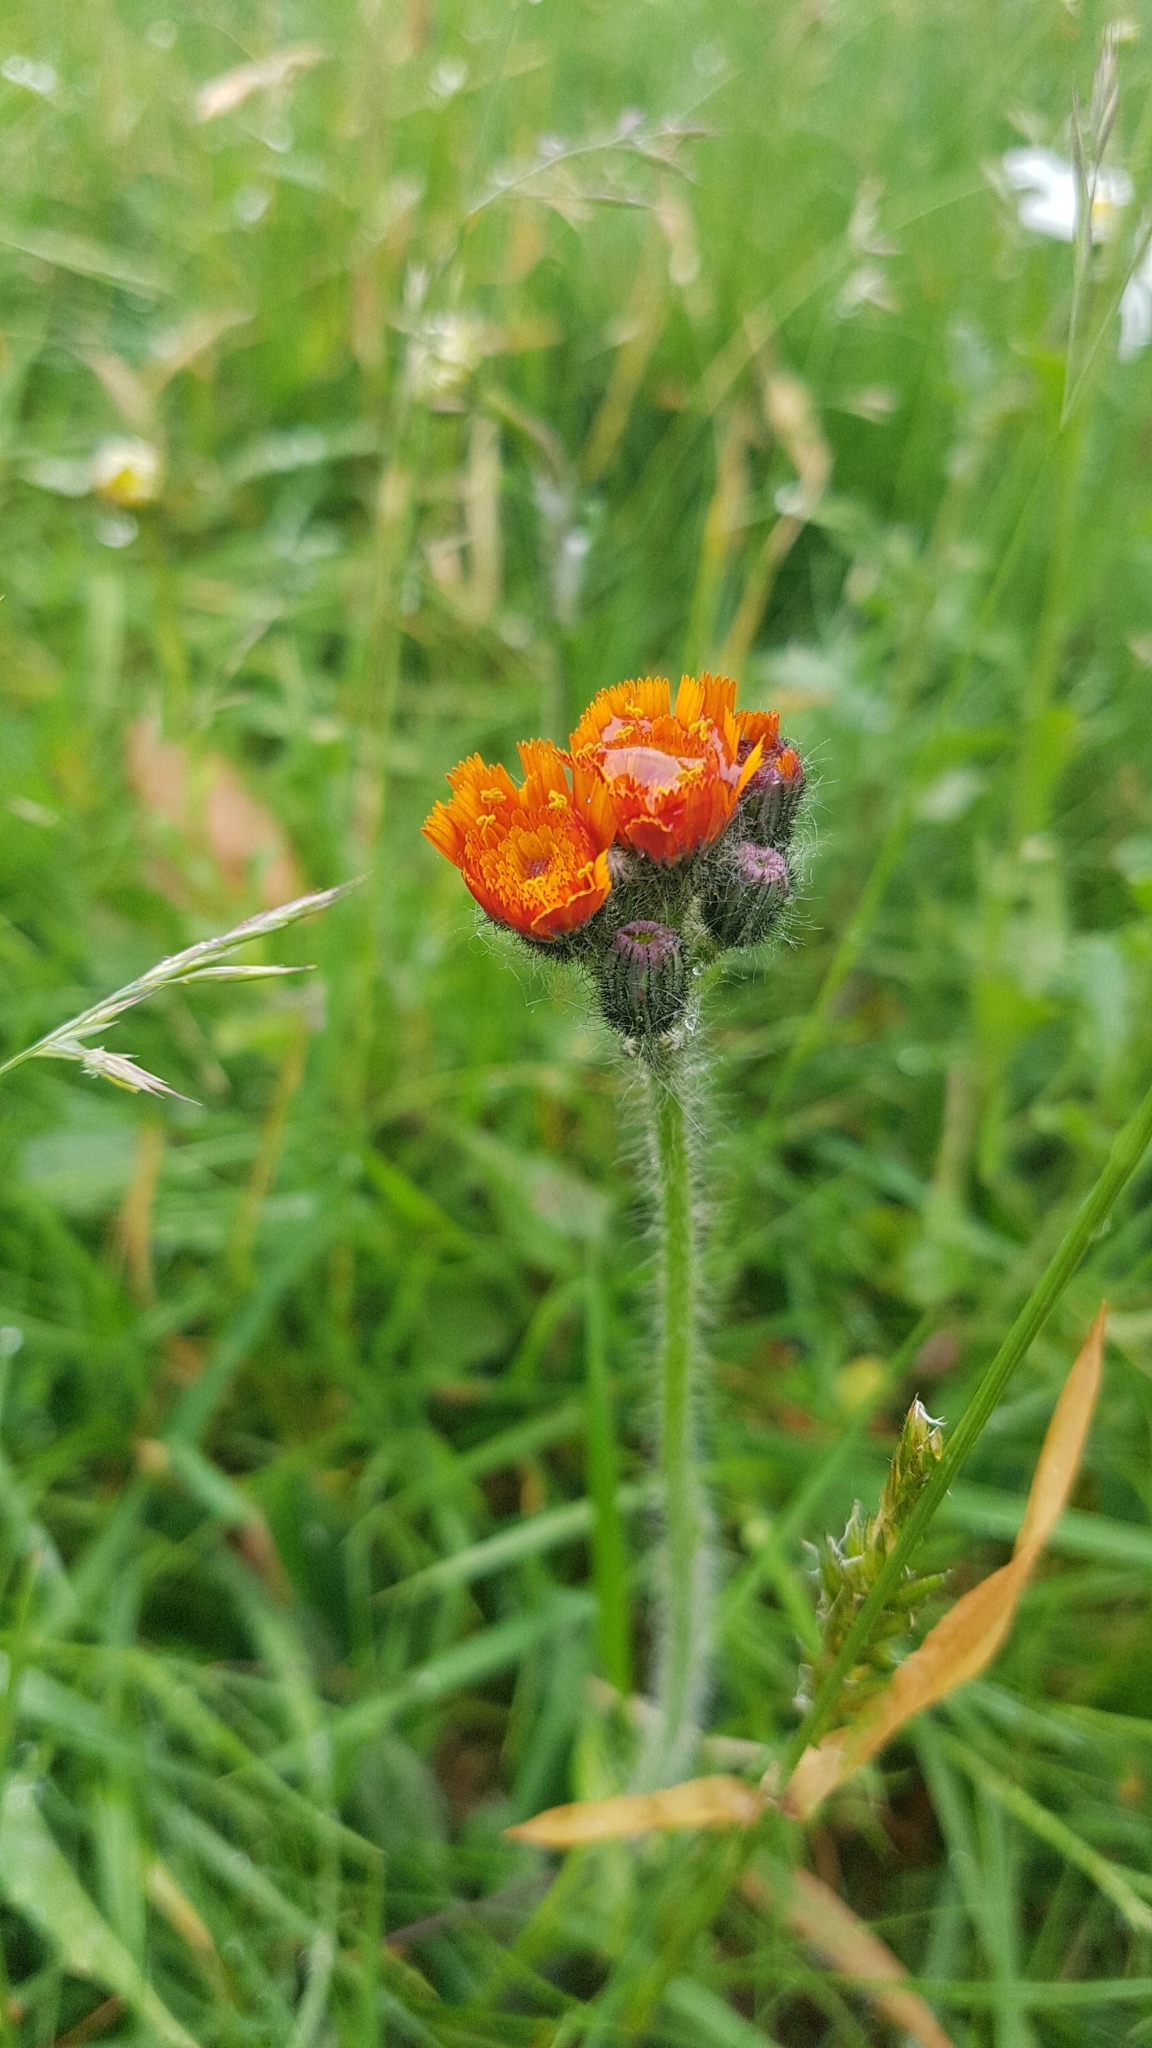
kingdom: Plantae
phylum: Tracheophyta
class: Magnoliopsida
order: Asterales
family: Asteraceae
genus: Pilosella
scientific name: Pilosella aurantiaca
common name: Fox-and-cubs
